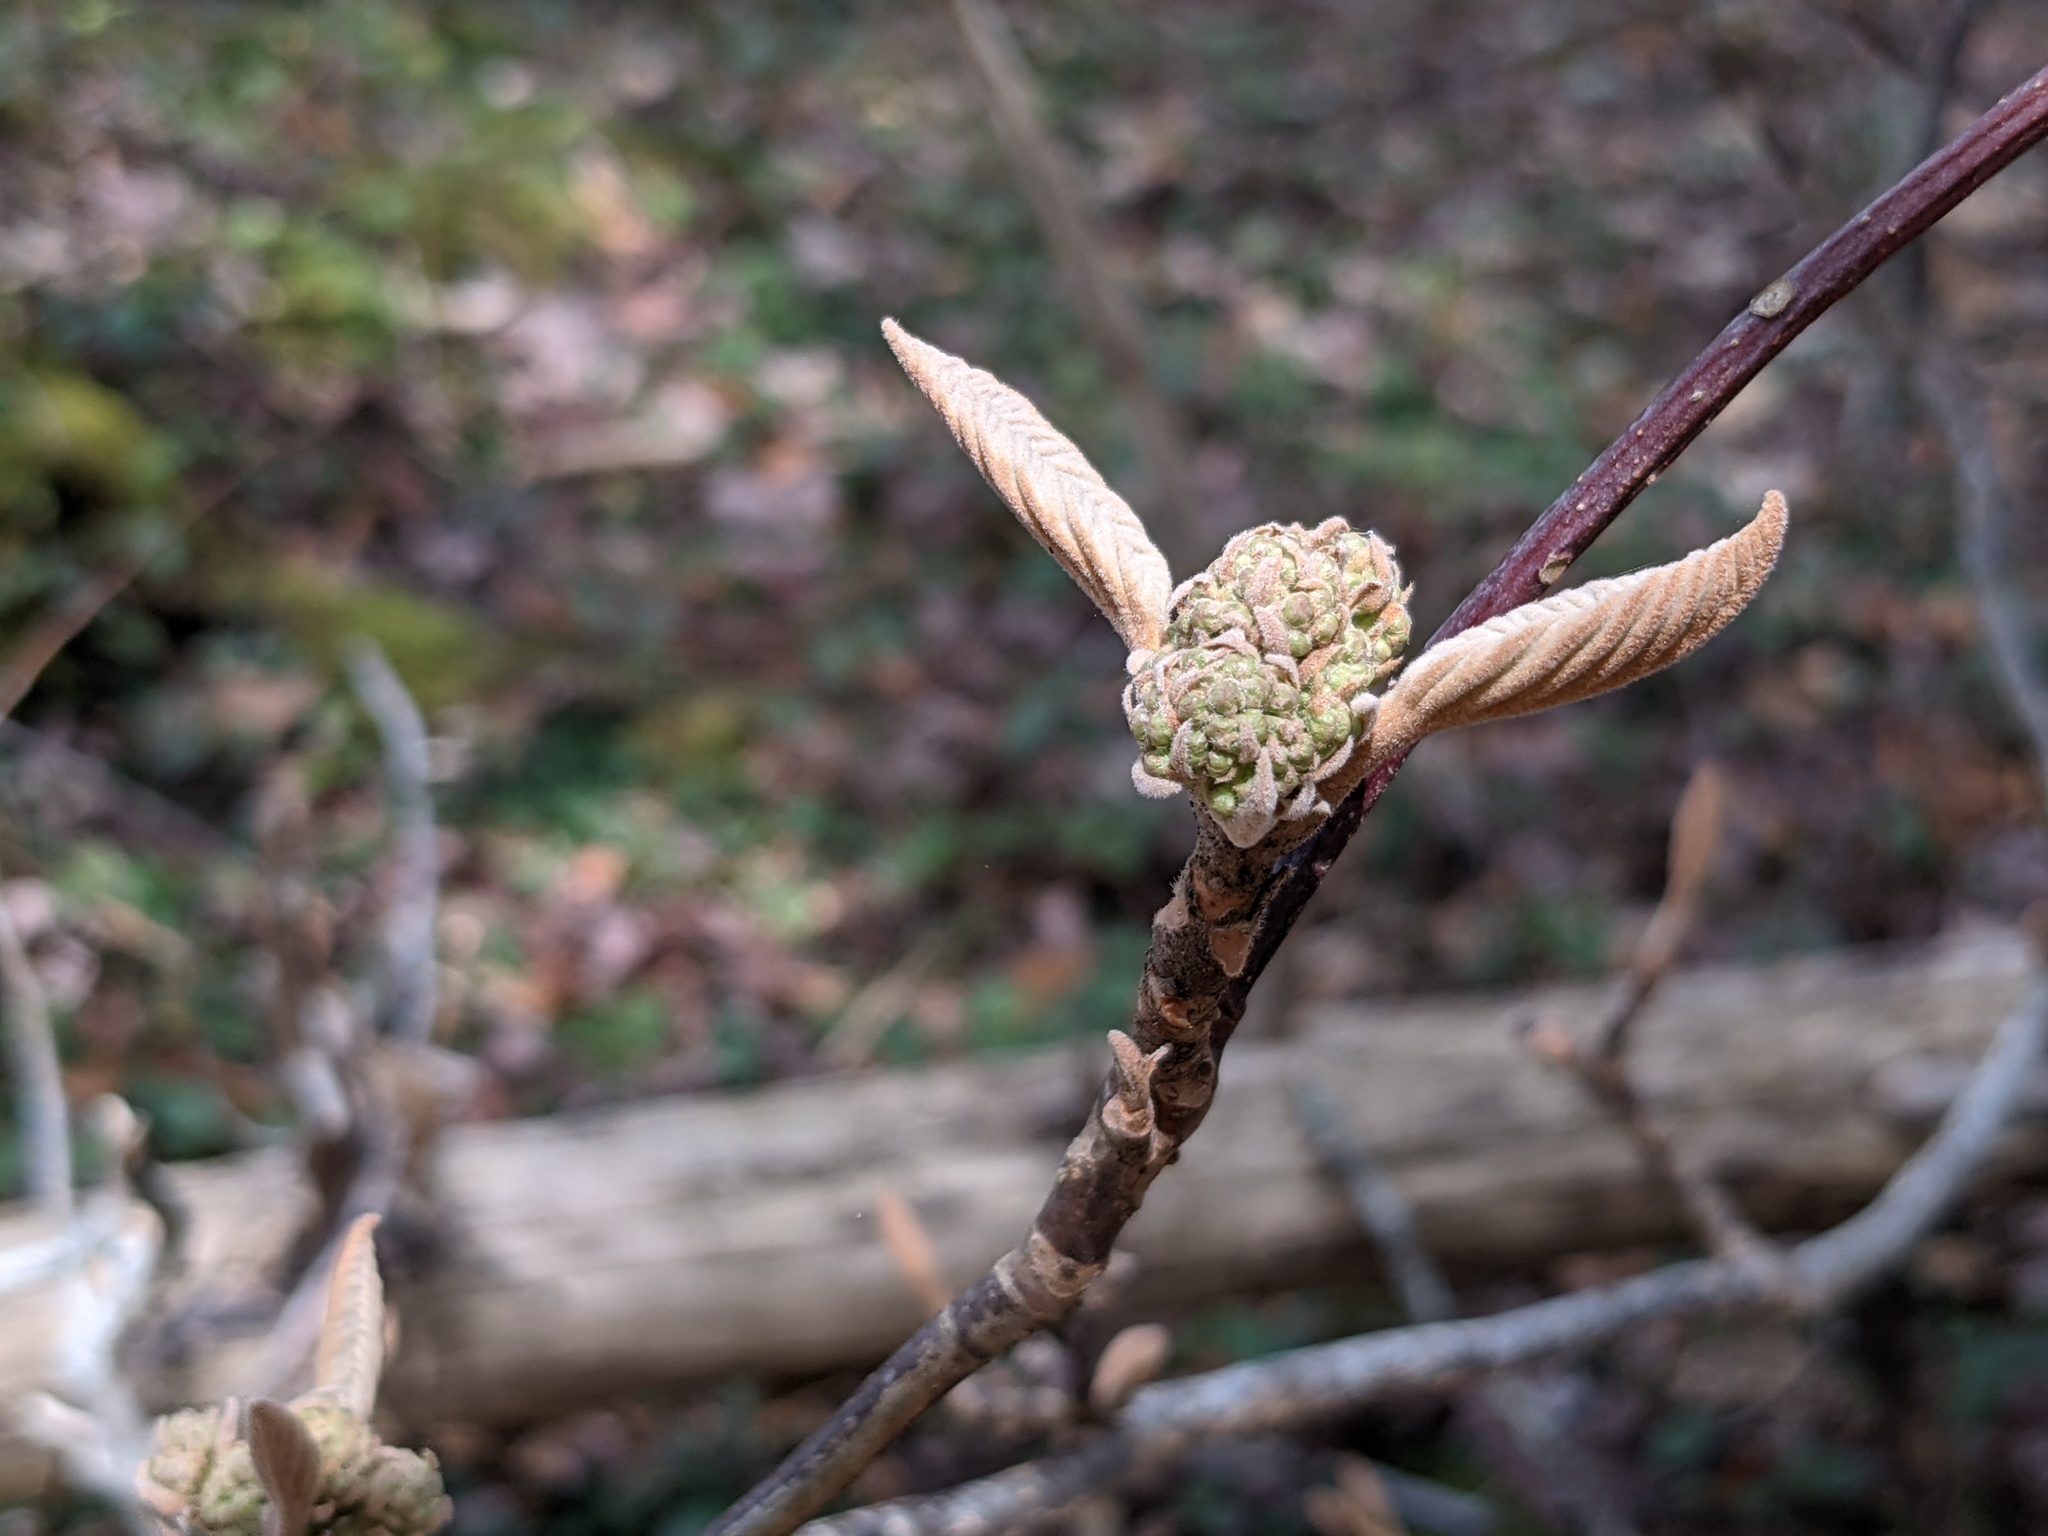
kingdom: Plantae
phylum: Tracheophyta
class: Magnoliopsida
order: Dipsacales
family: Viburnaceae
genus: Viburnum
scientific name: Viburnum lantanoides
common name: Hobblebush
